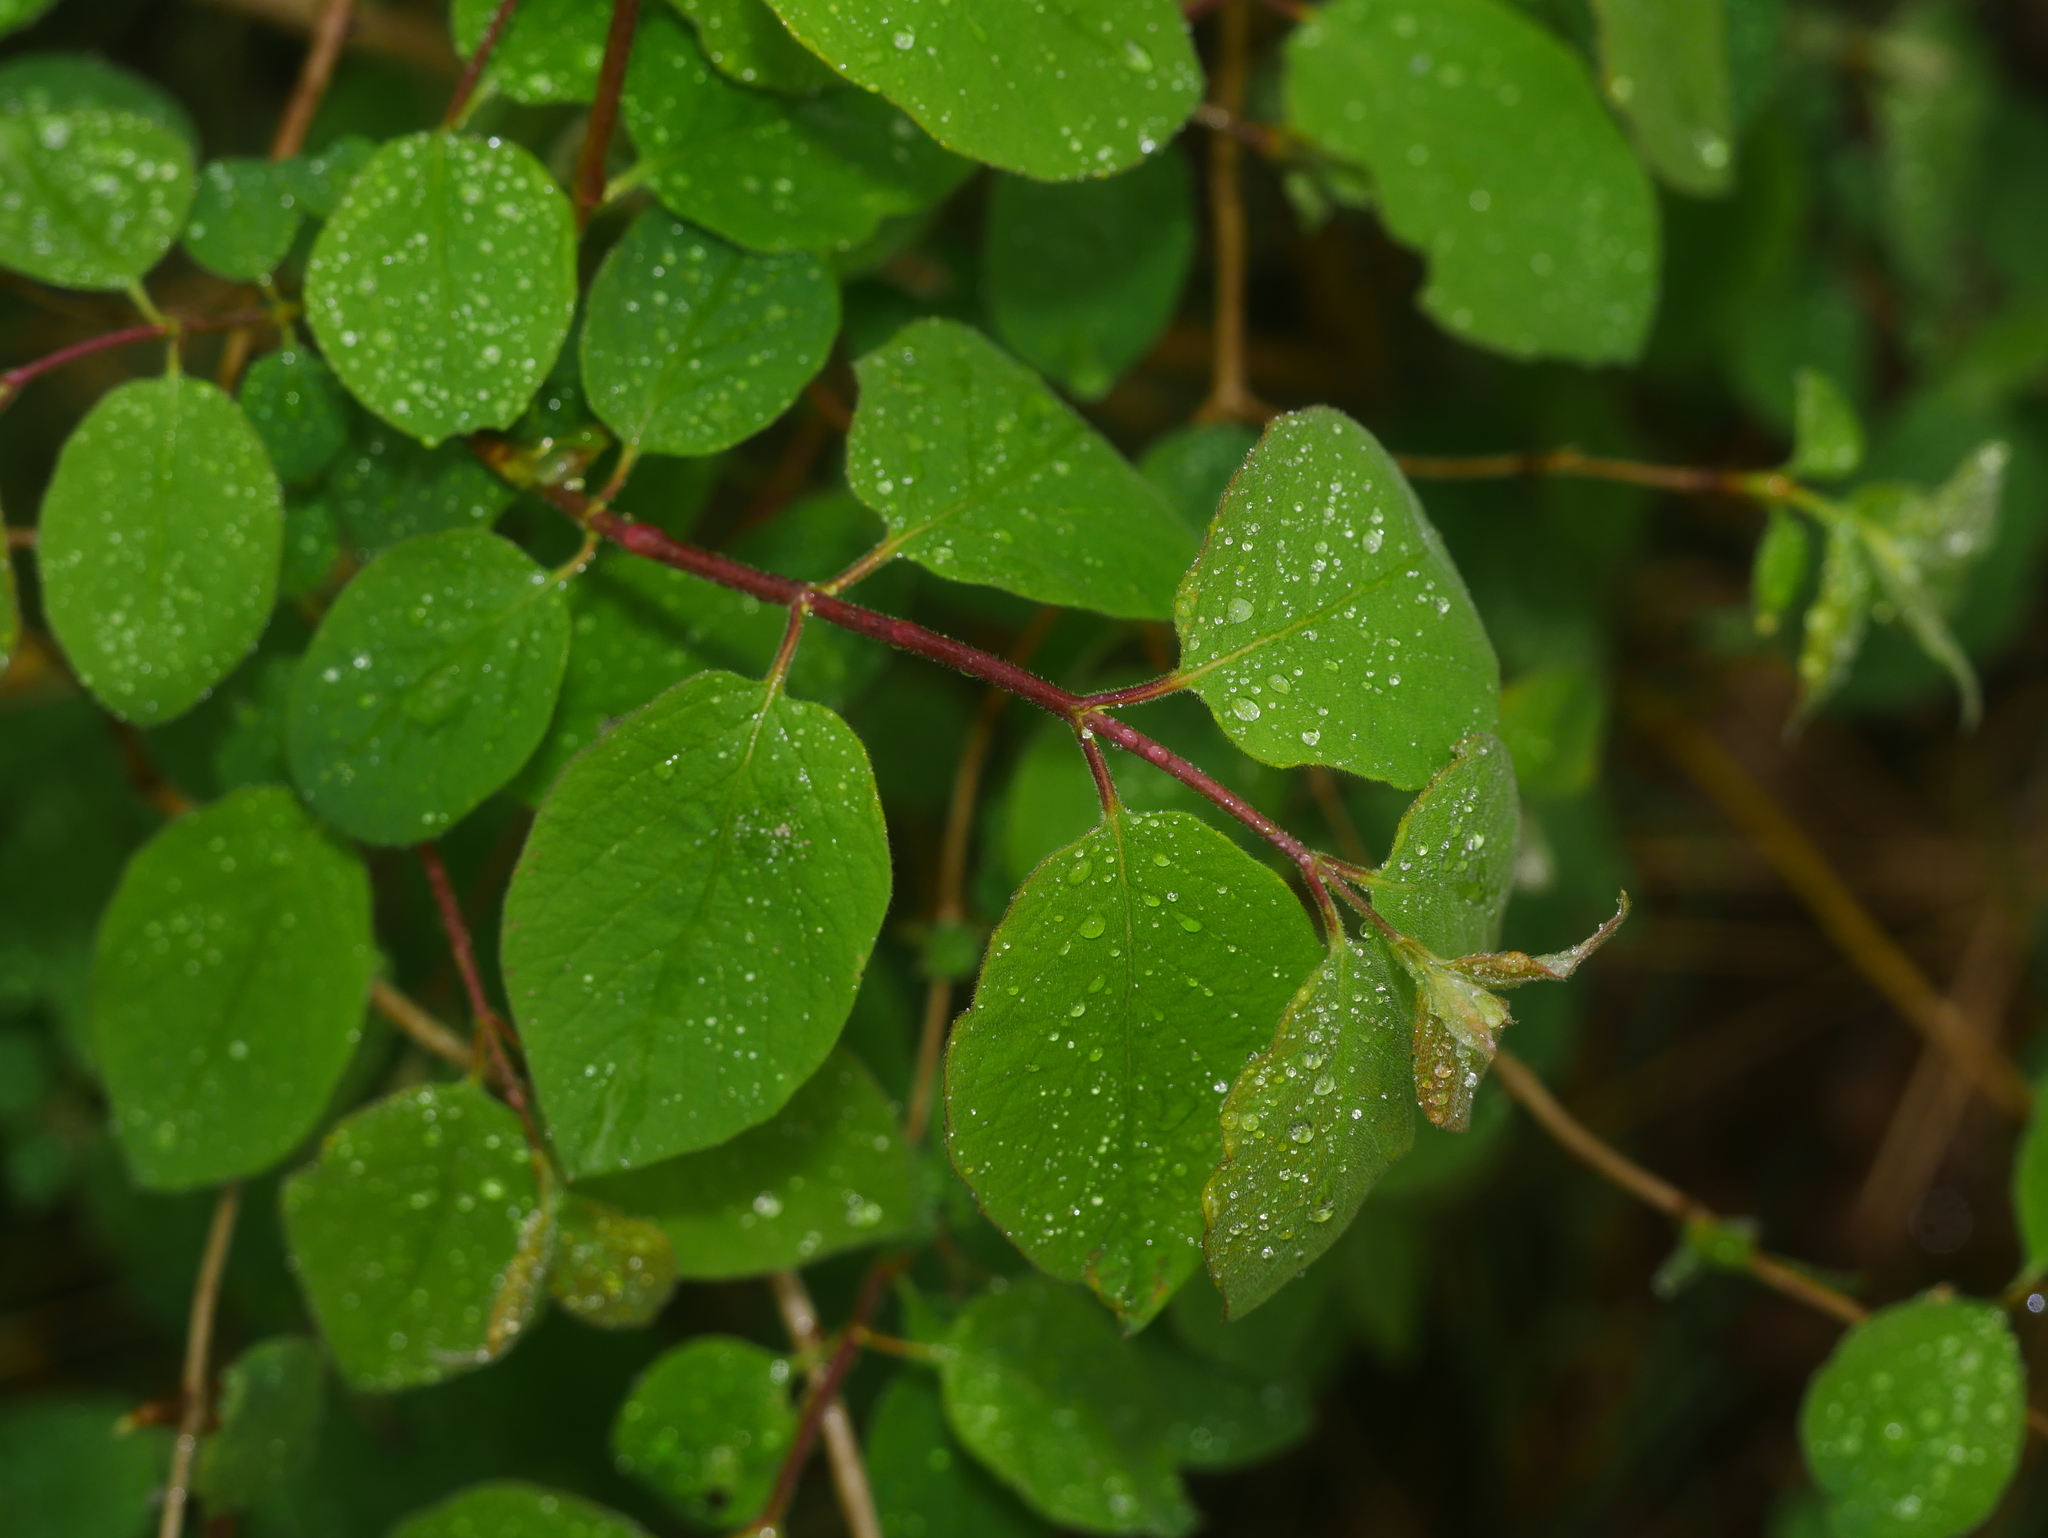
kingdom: Plantae
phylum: Tracheophyta
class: Magnoliopsida
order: Dipsacales
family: Caprifoliaceae
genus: Lonicera
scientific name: Lonicera xylosteum
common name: Fly honeysuckle
